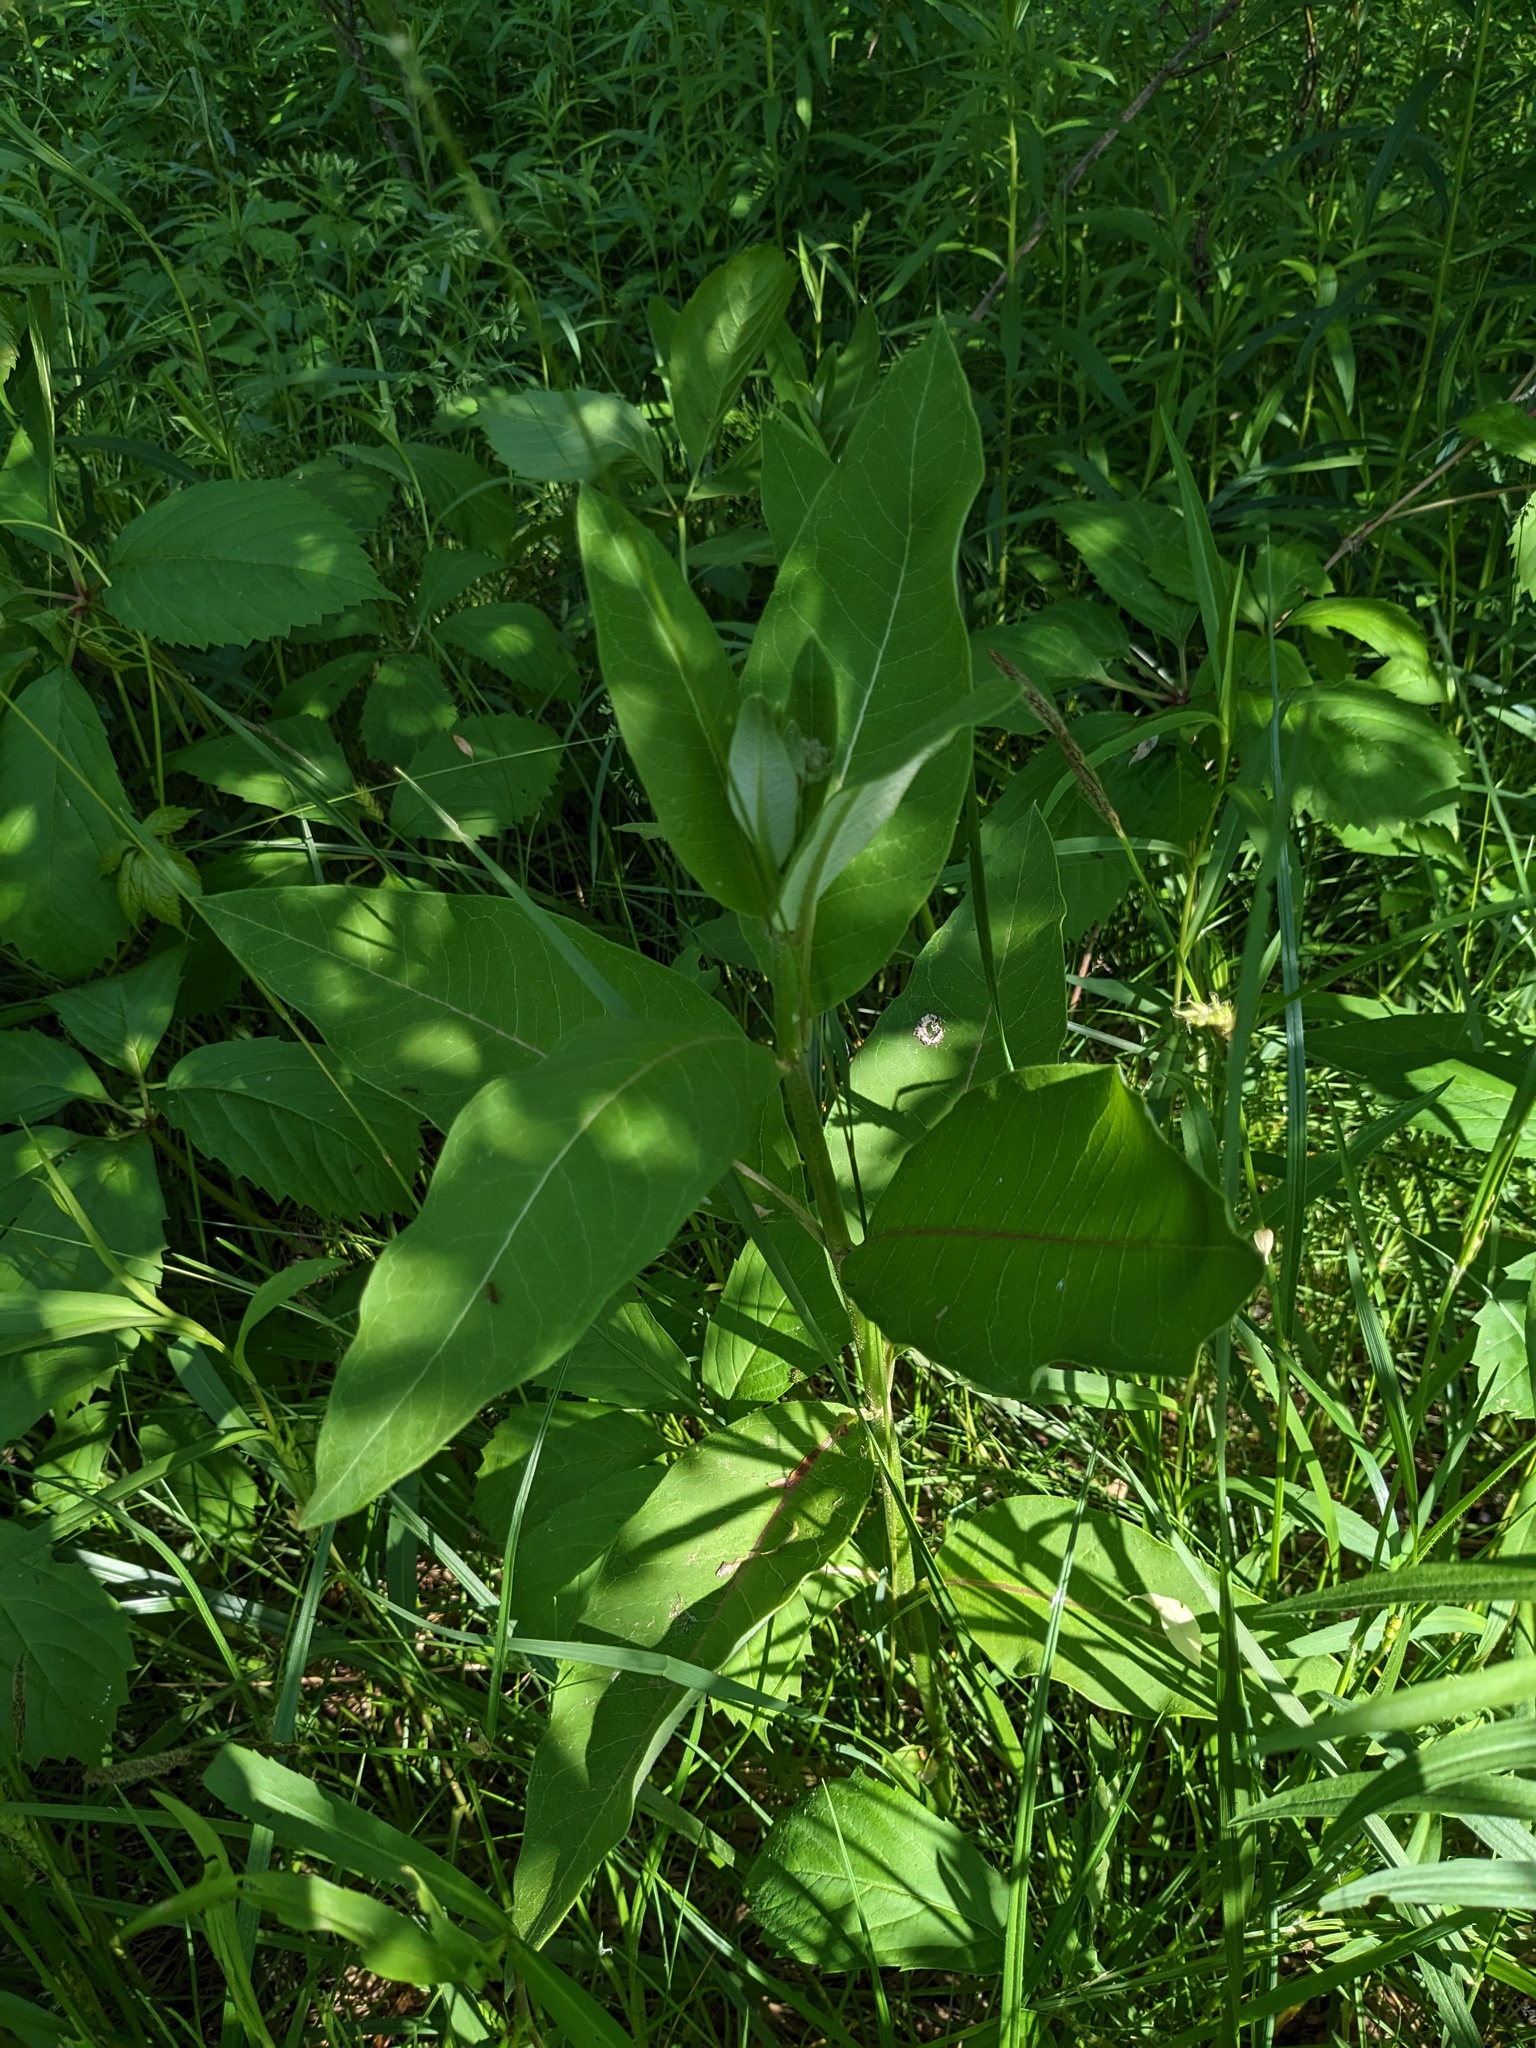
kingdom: Plantae
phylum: Tracheophyta
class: Magnoliopsida
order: Gentianales
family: Apocynaceae
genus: Asclepias
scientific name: Asclepias syriaca
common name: Common milkweed
